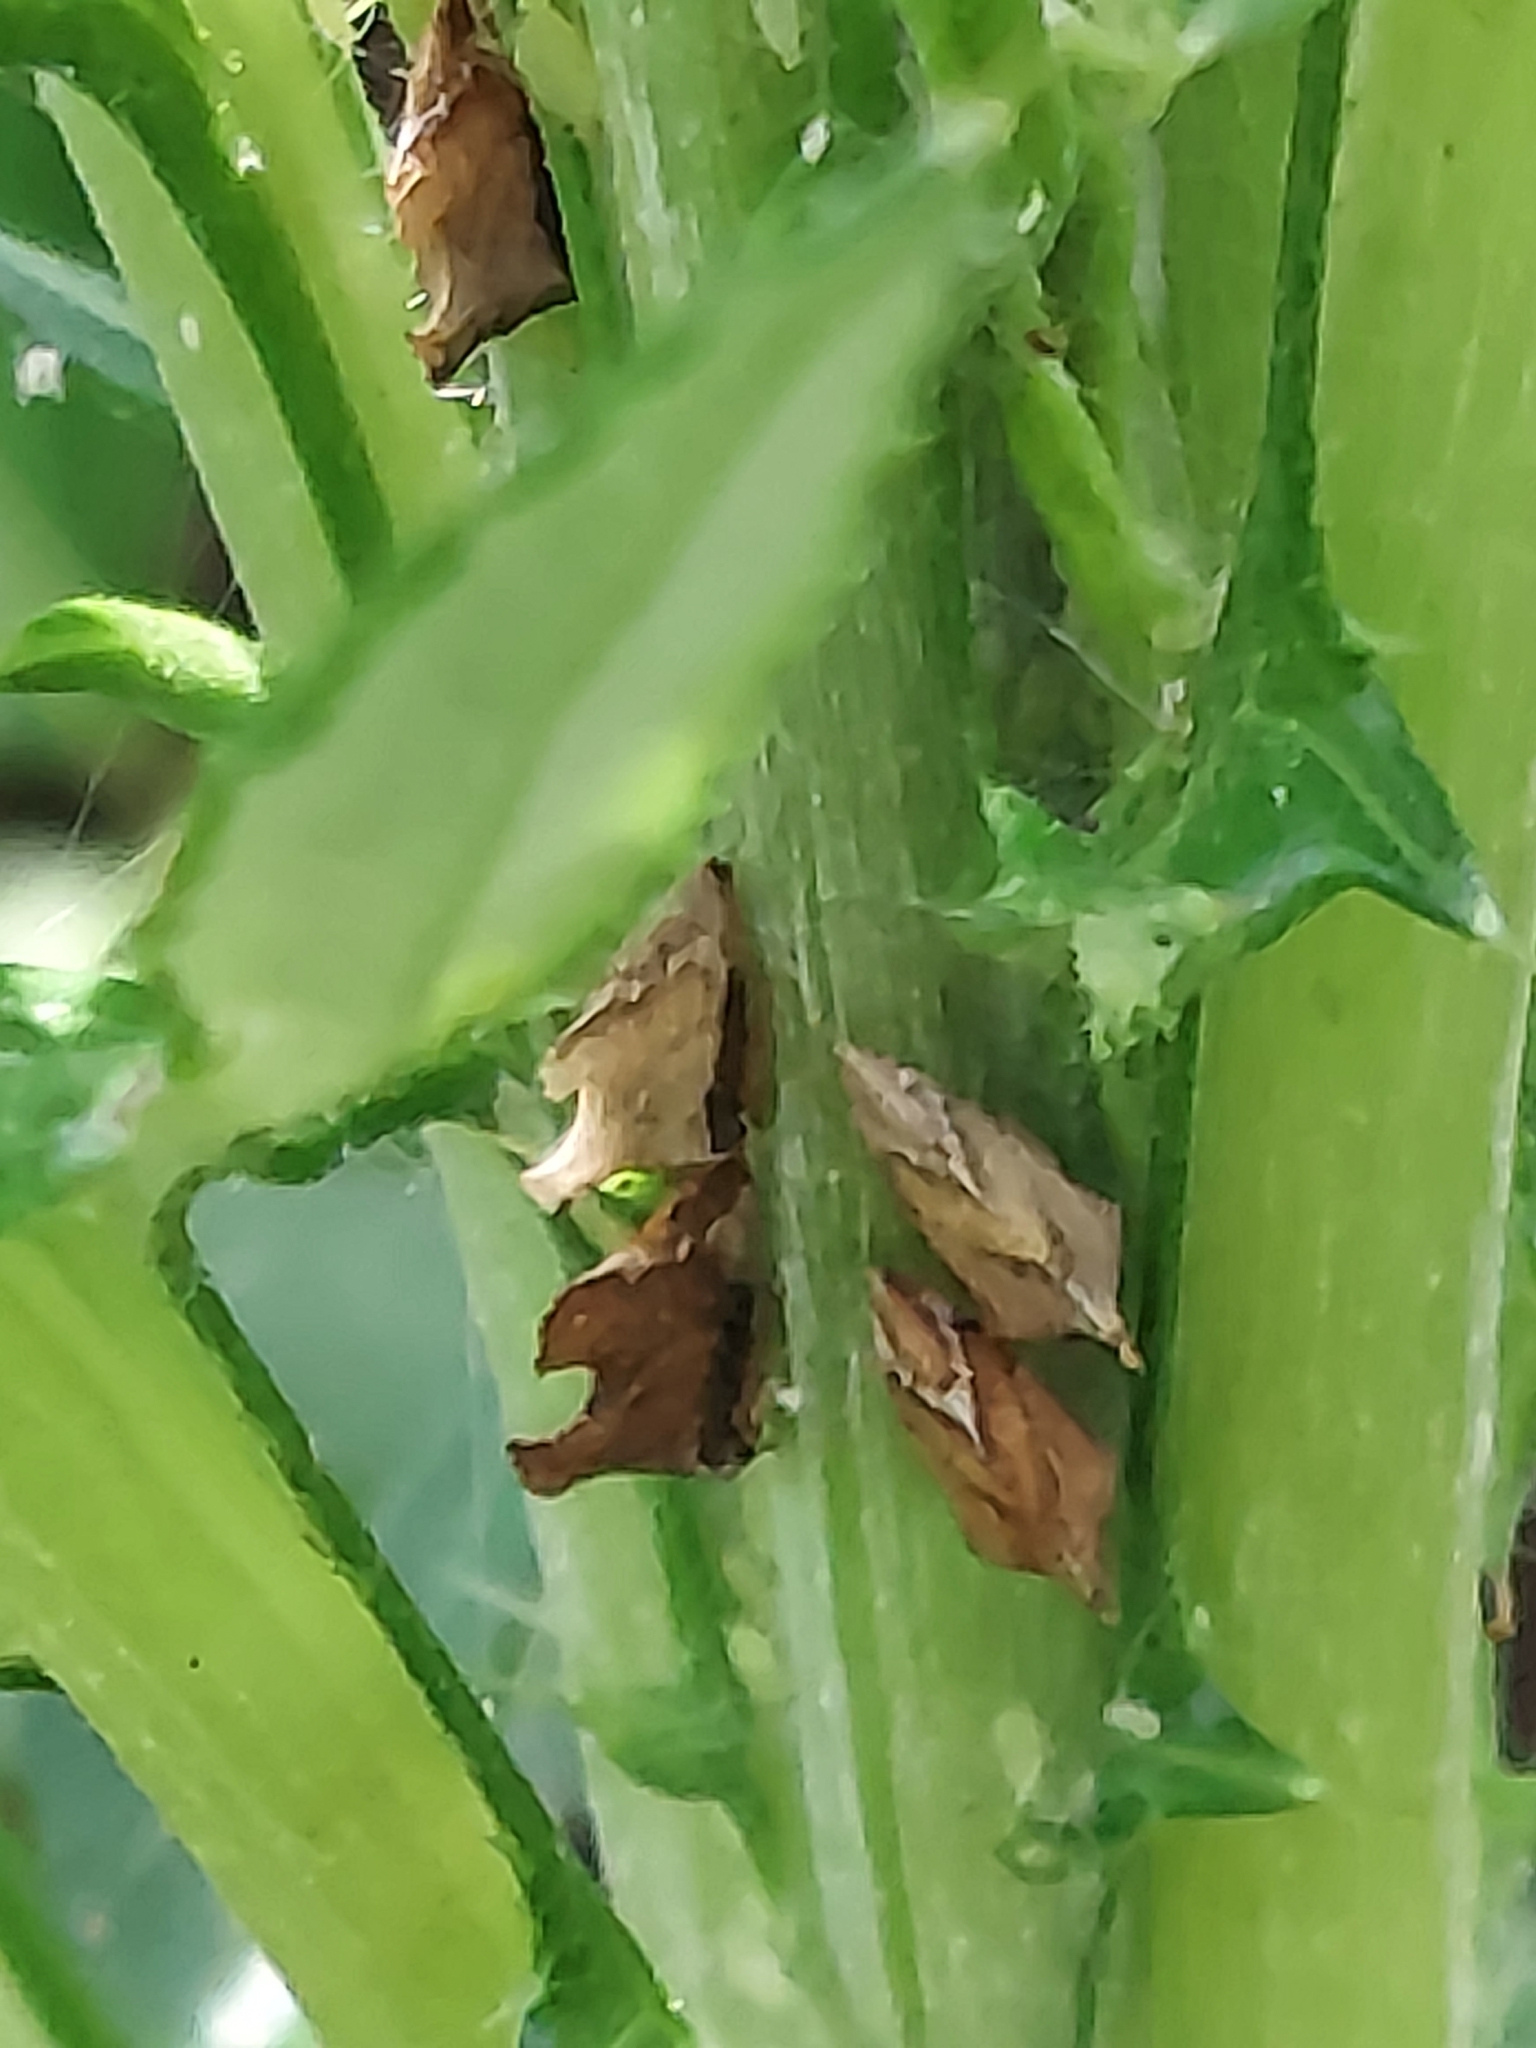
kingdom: Animalia
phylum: Arthropoda
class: Insecta
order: Hemiptera
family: Membracidae
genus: Entylia
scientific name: Entylia carinata
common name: Keeled treehopper
